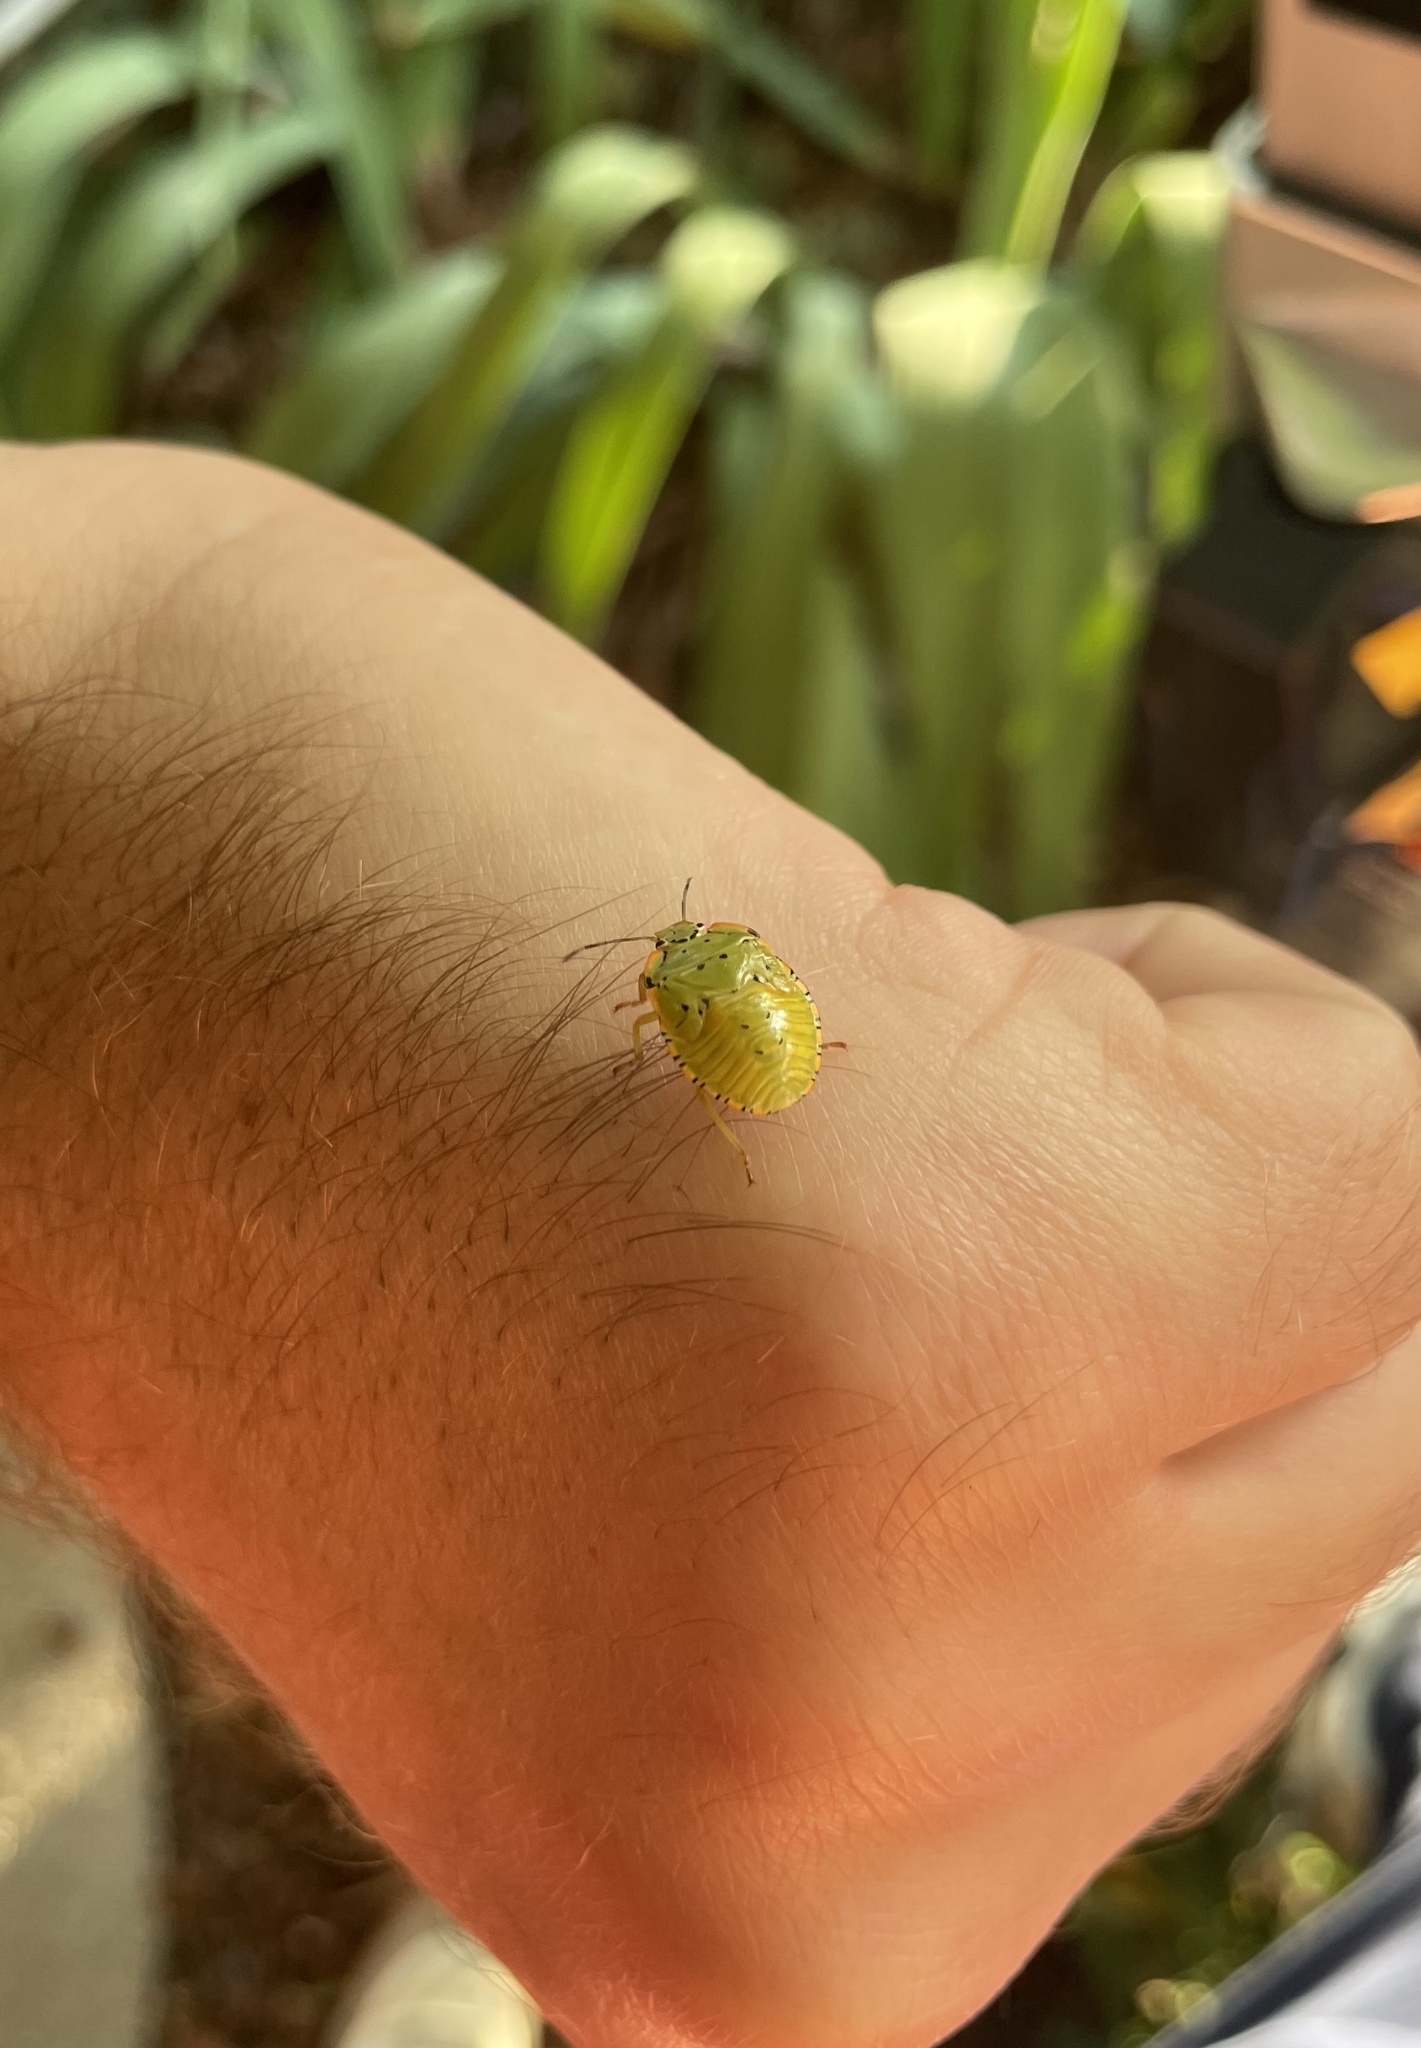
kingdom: Animalia
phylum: Arthropoda
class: Insecta
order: Hemiptera
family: Pentatomidae
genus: Chinavia
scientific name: Chinavia hilaris
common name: Green stink bug
